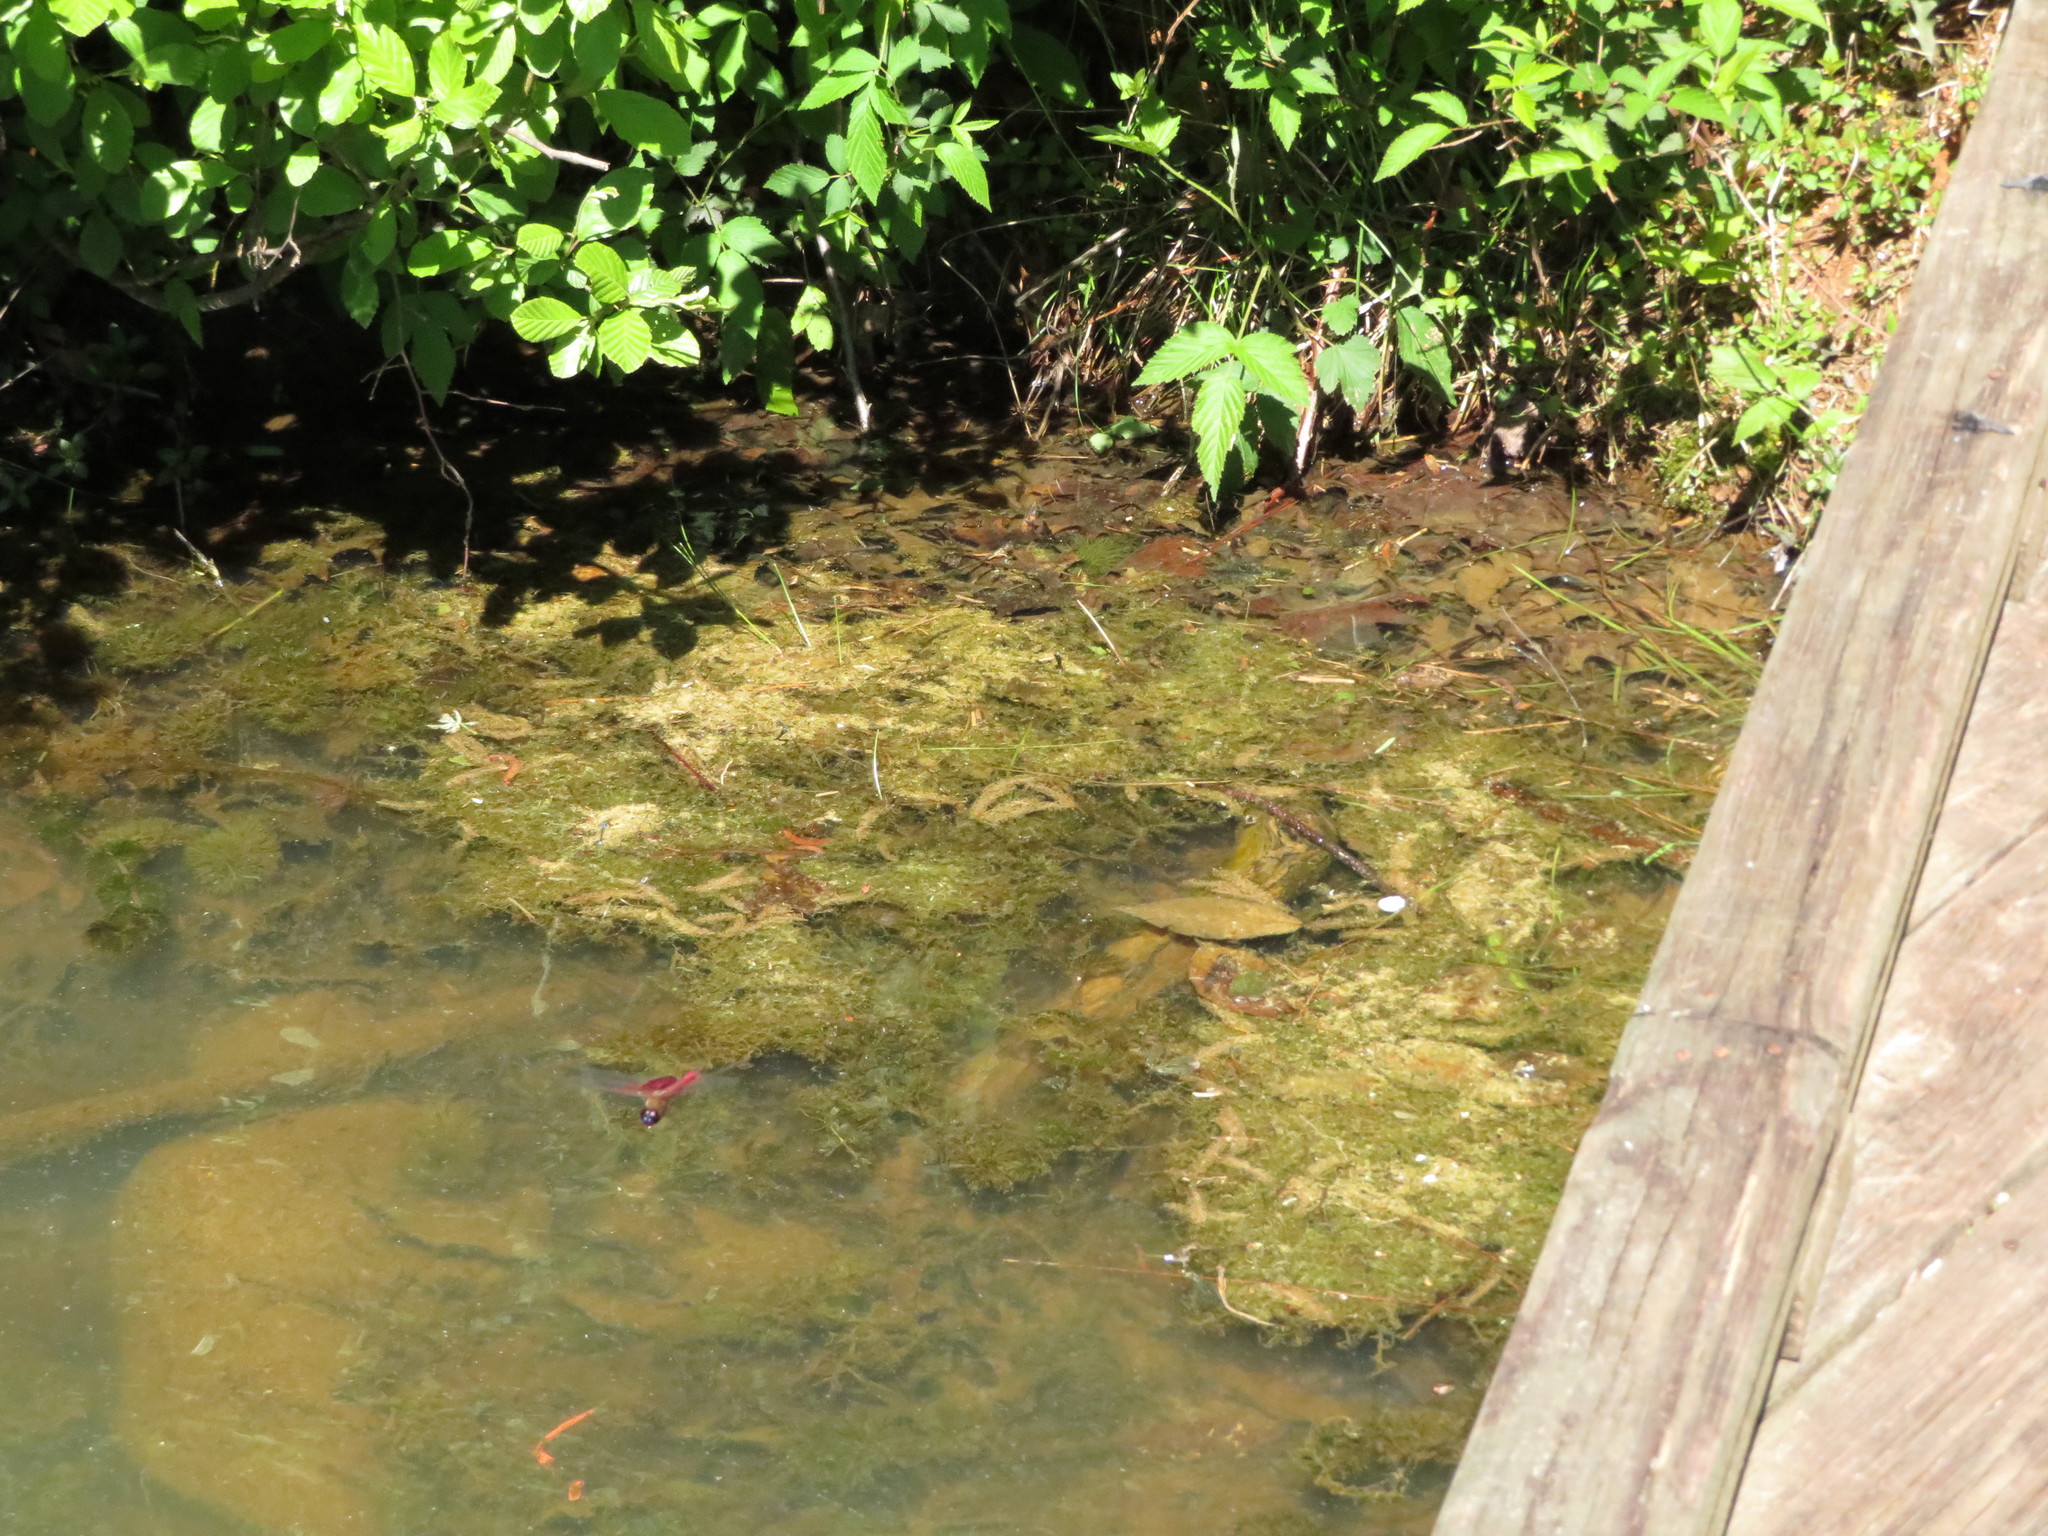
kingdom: Animalia
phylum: Arthropoda
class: Insecta
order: Odonata
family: Libellulidae
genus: Tramea
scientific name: Tramea carolina
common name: Carolina saddlebags
